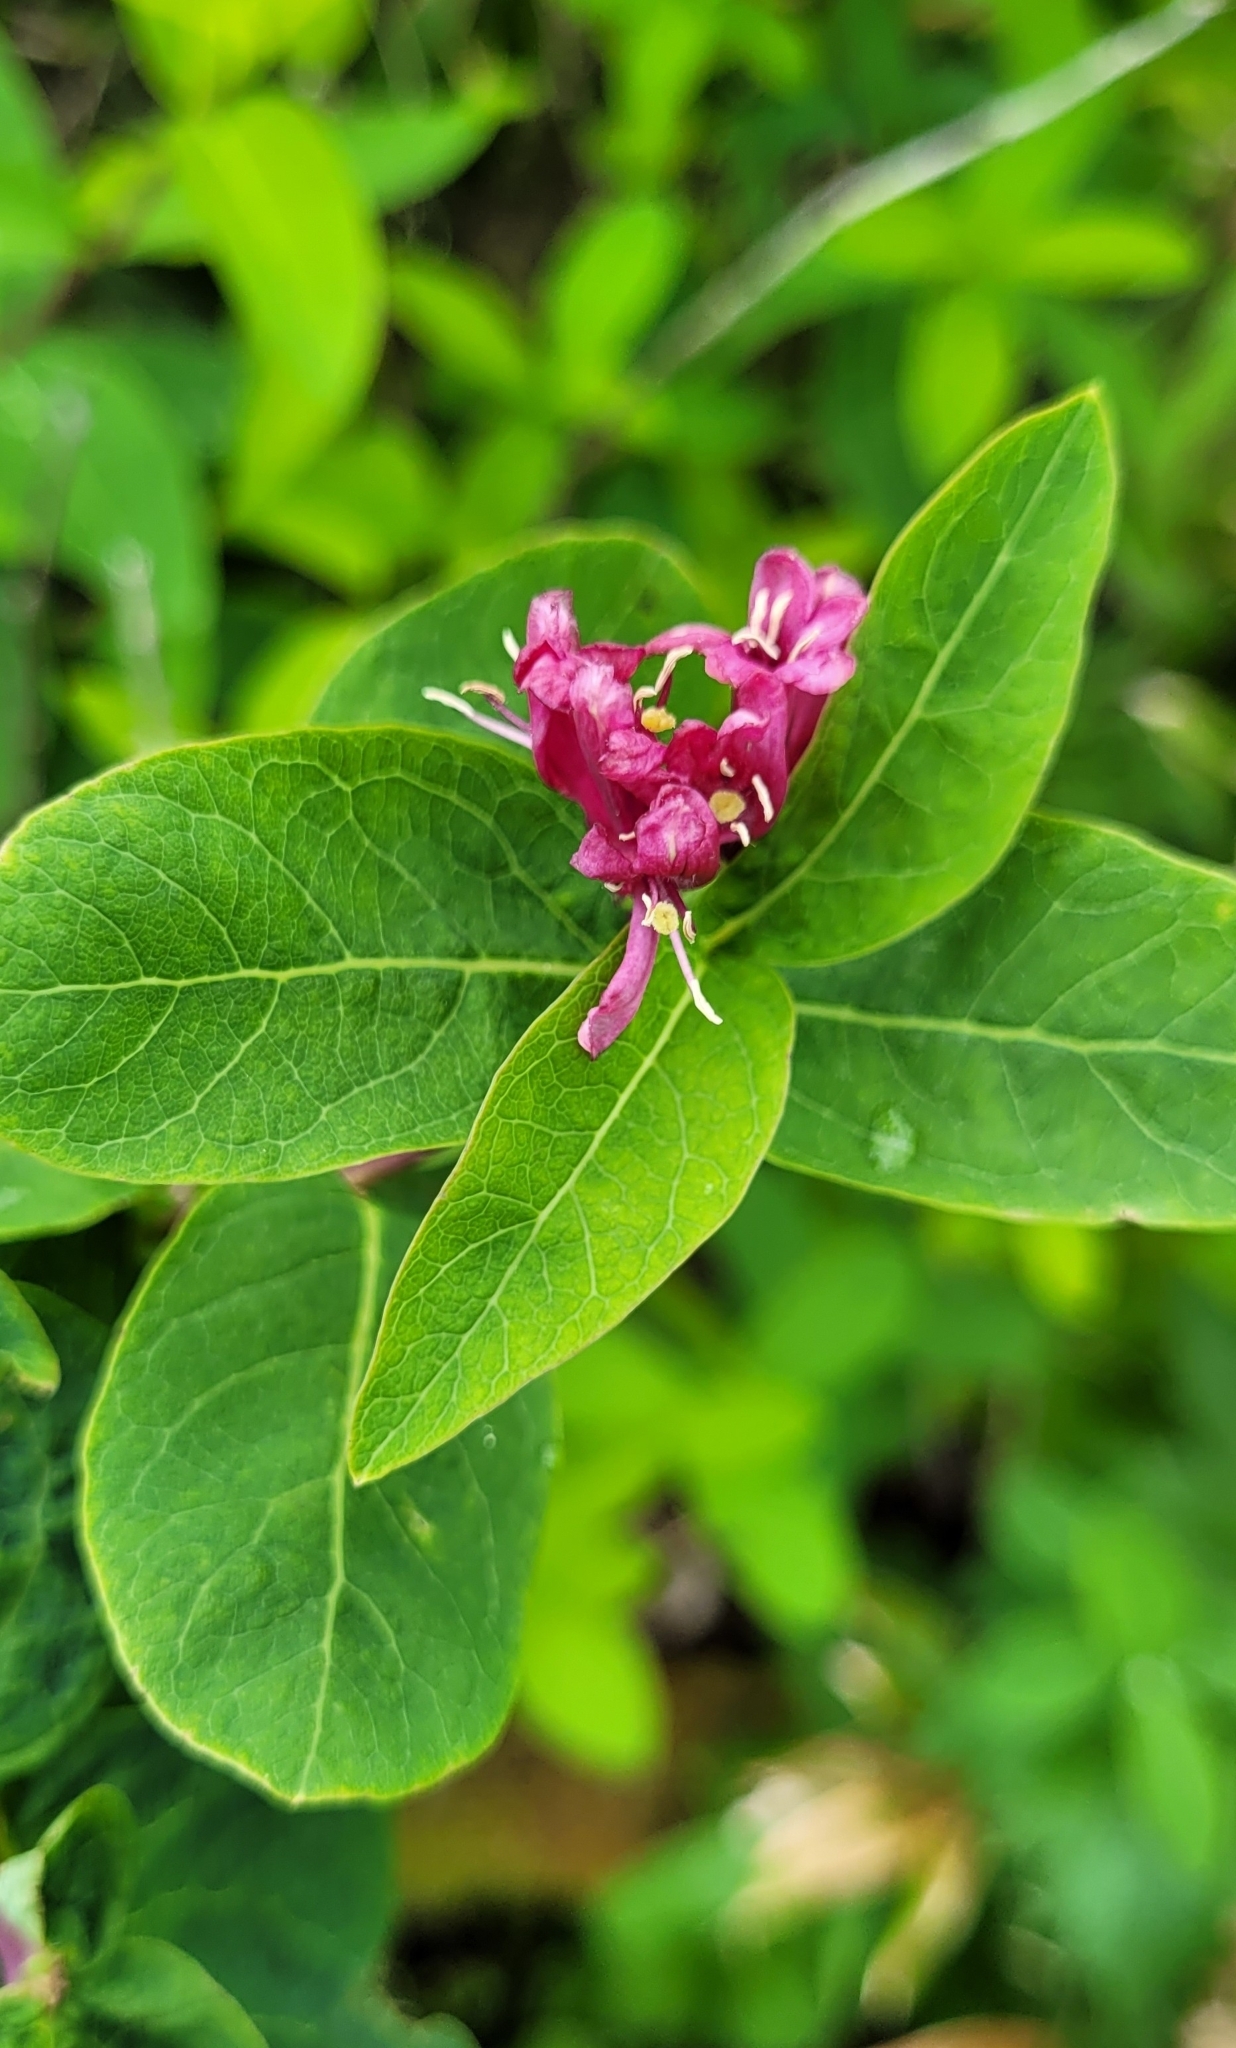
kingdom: Plantae
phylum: Tracheophyta
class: Magnoliopsida
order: Dipsacales
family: Caprifoliaceae
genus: Lonicera
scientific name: Lonicera chamissoi
